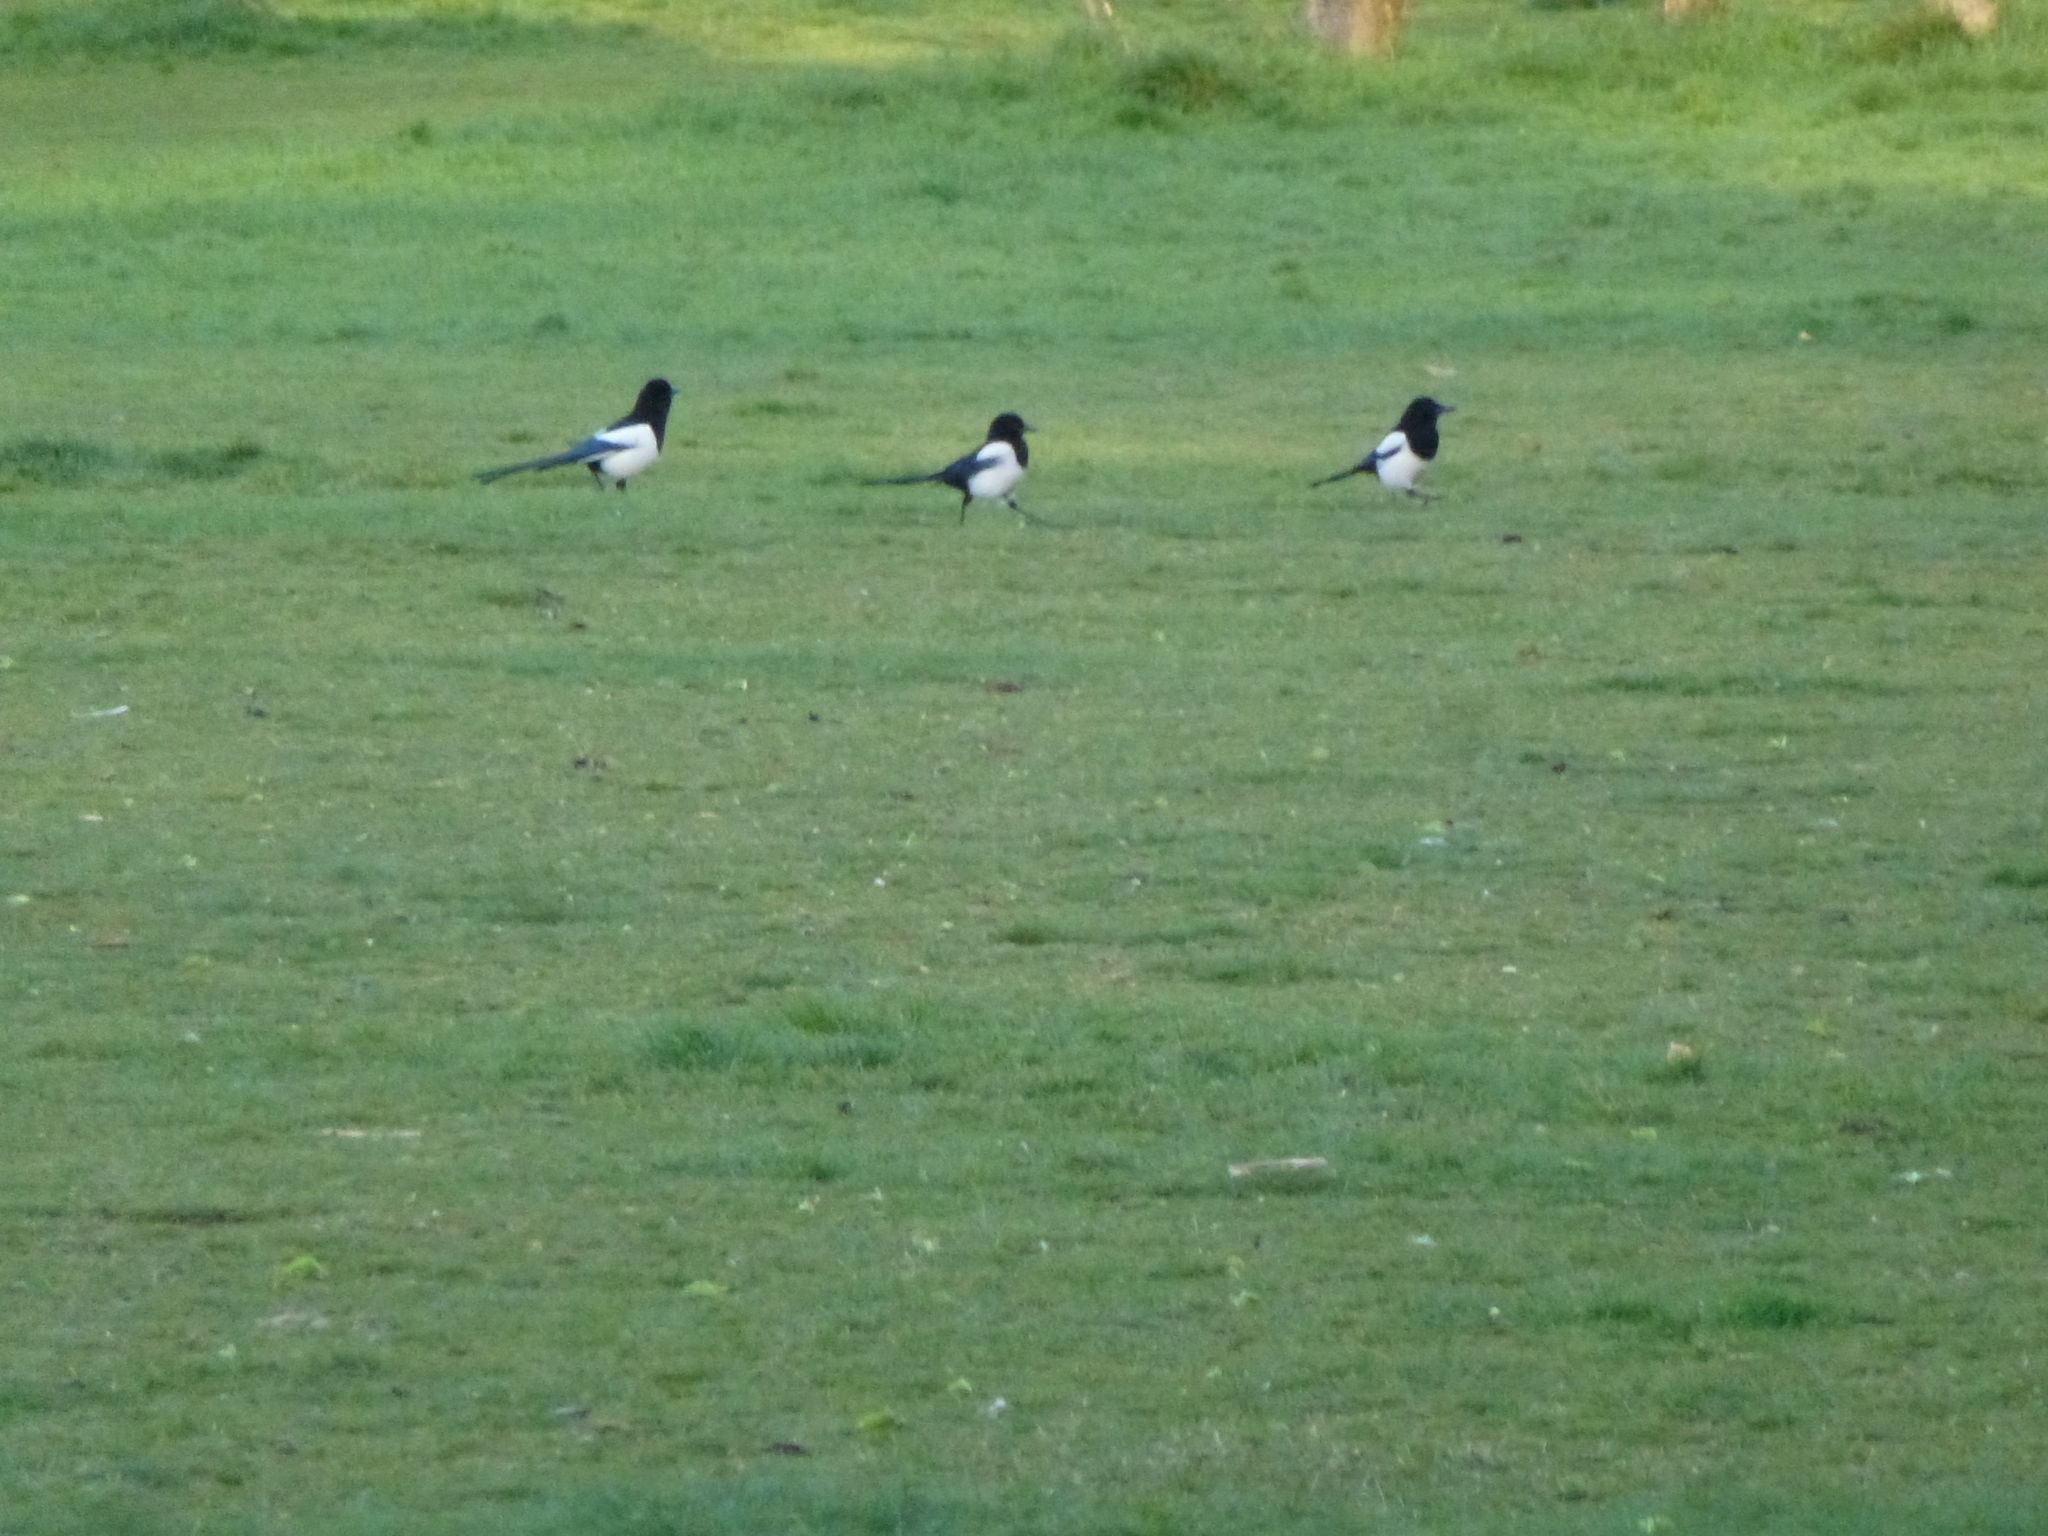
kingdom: Animalia
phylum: Chordata
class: Aves
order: Passeriformes
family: Corvidae
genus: Pica
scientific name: Pica pica
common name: Eurasian magpie
